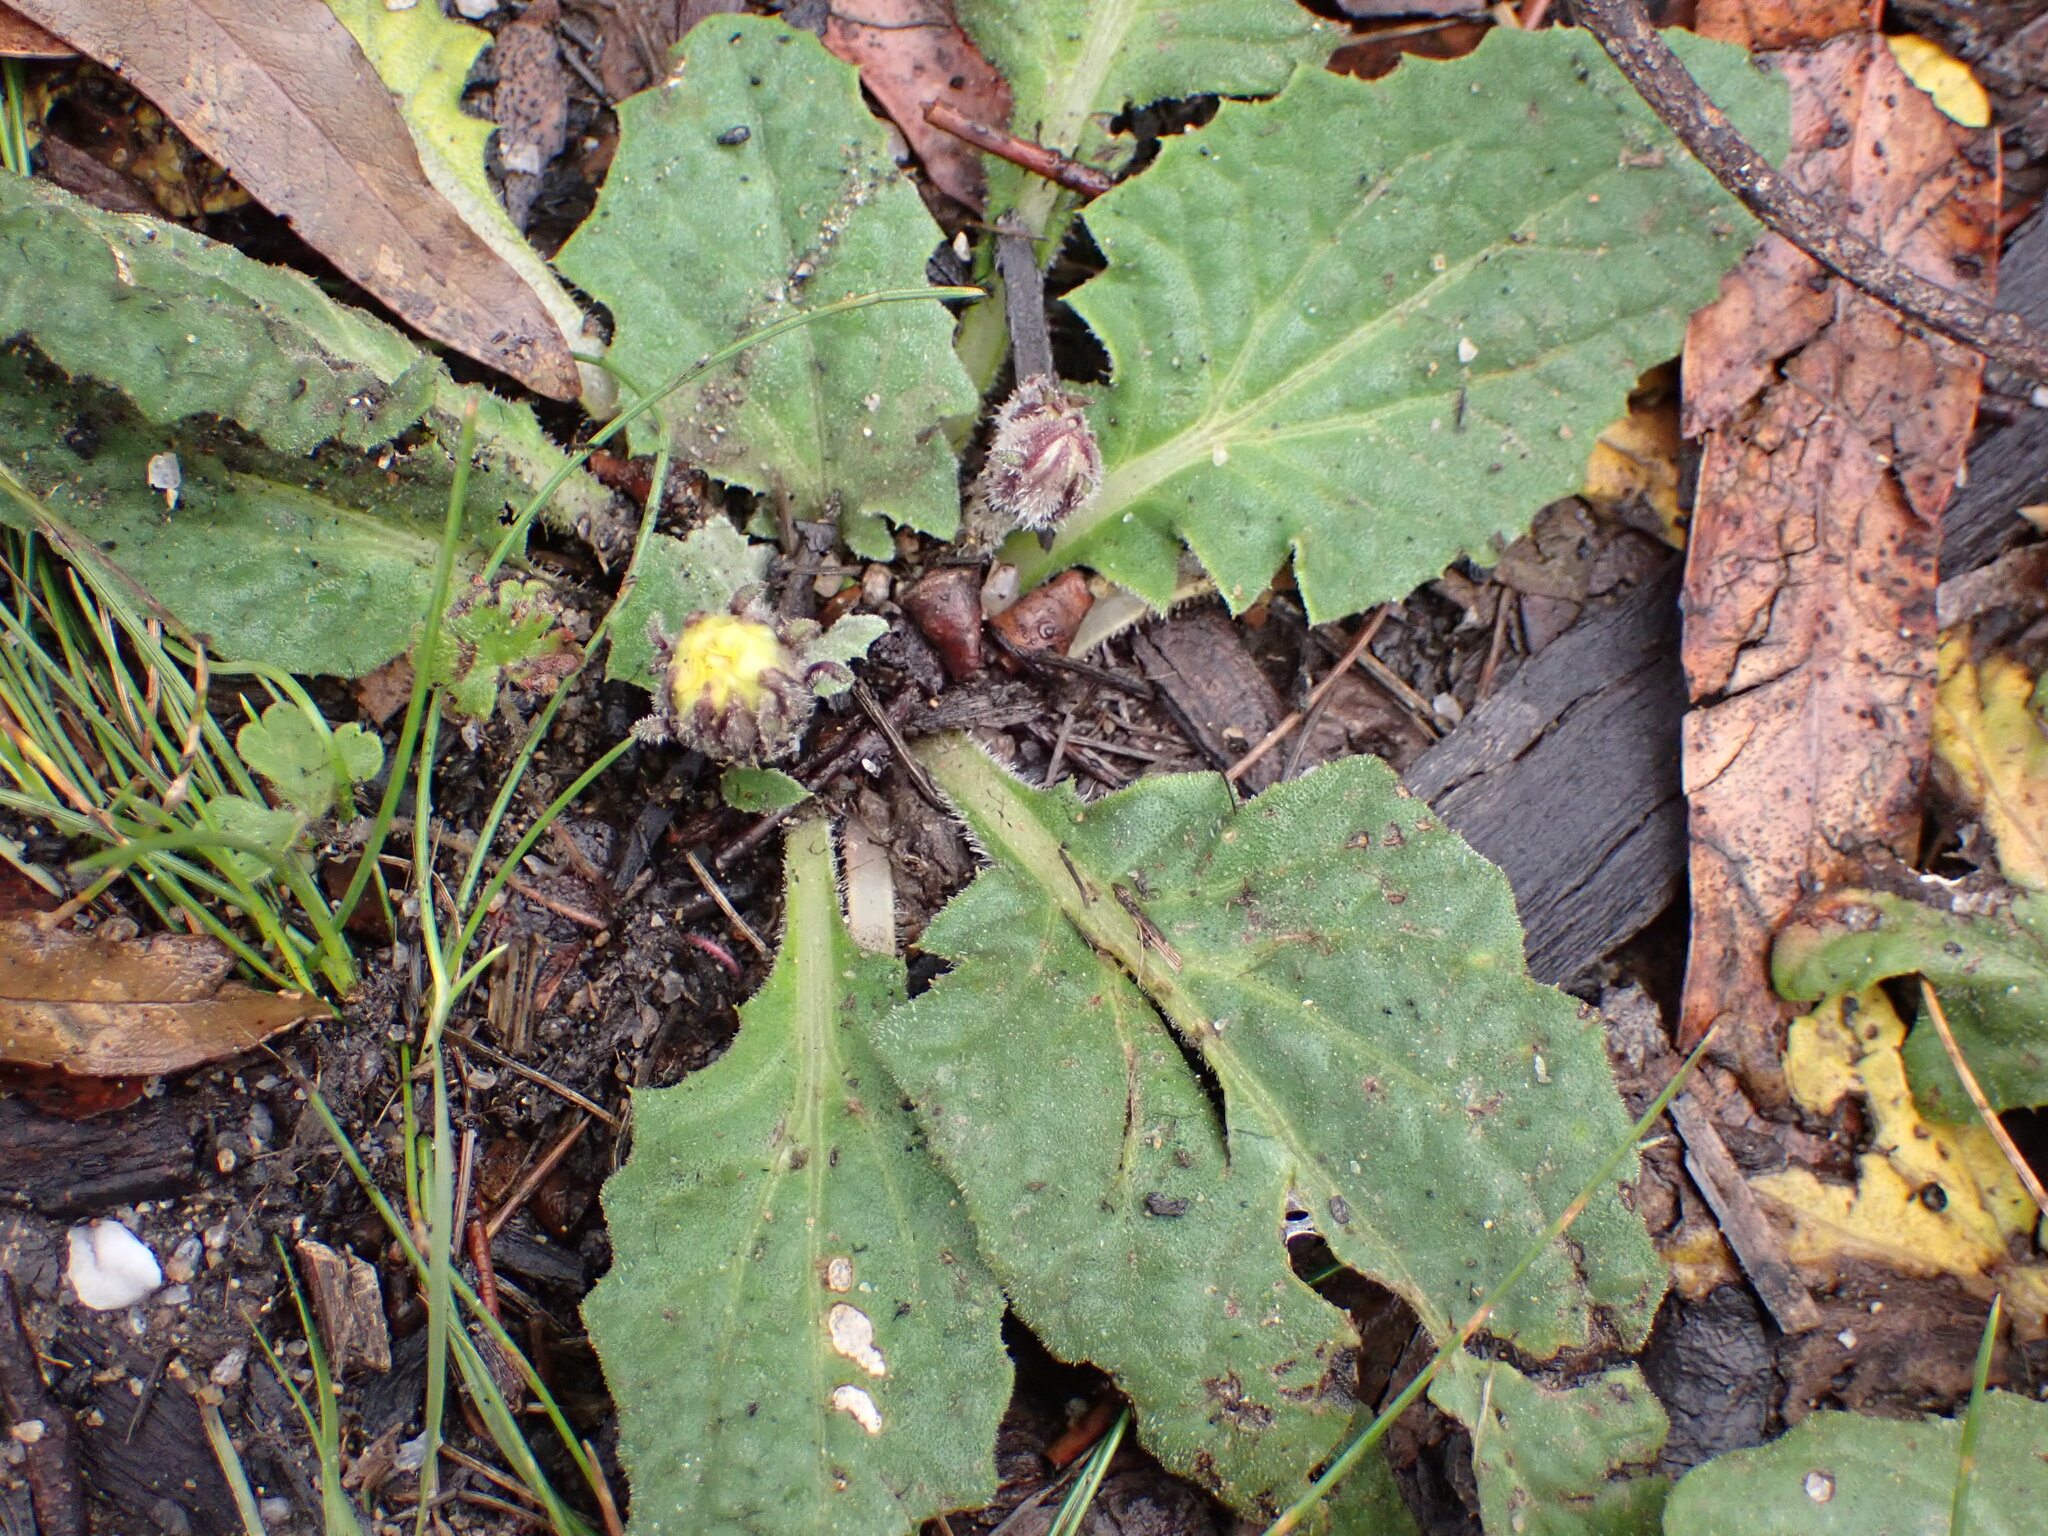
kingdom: Plantae
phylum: Tracheophyta
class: Magnoliopsida
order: Asterales
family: Asteraceae
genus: Cymbonotus
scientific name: Cymbonotus
